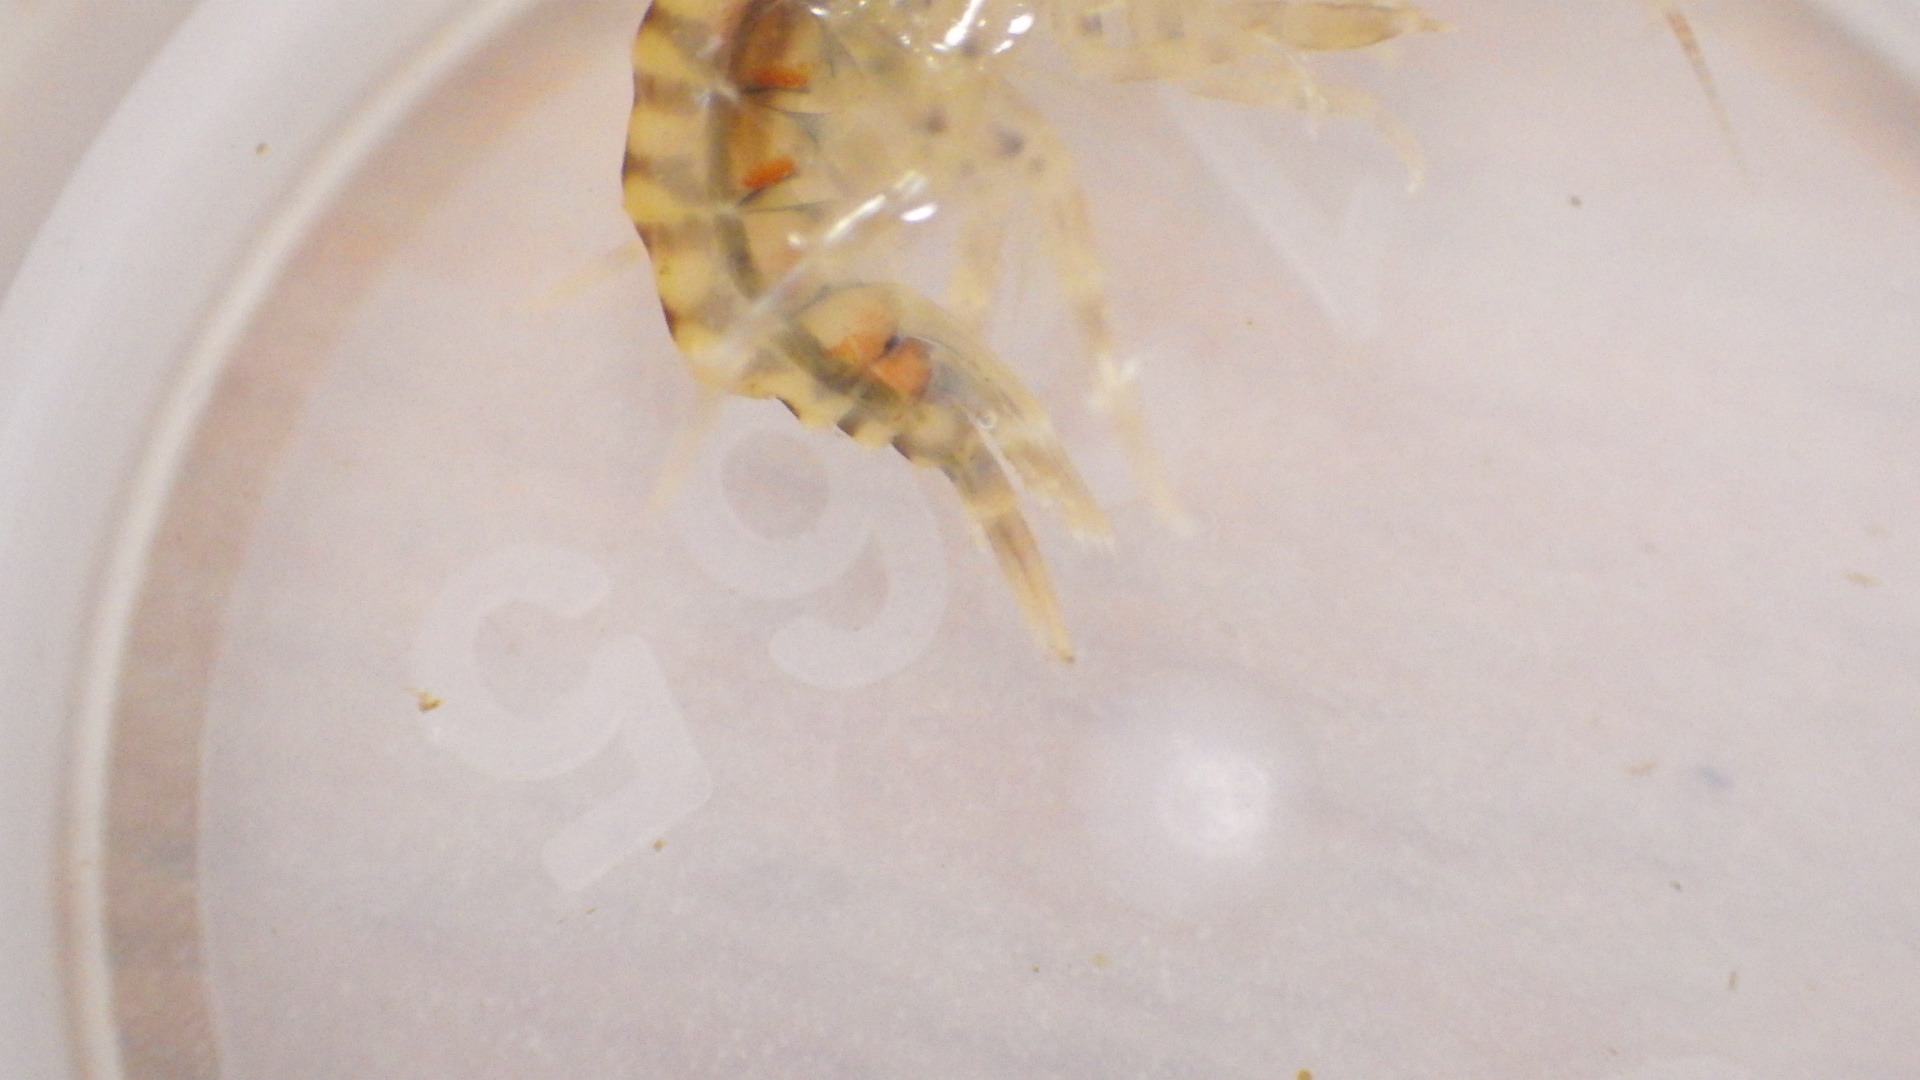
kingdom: Animalia
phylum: Arthropoda
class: Malacostraca
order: Amphipoda
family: Gammaridae
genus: Gammarus
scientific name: Gammarus fasciatus
